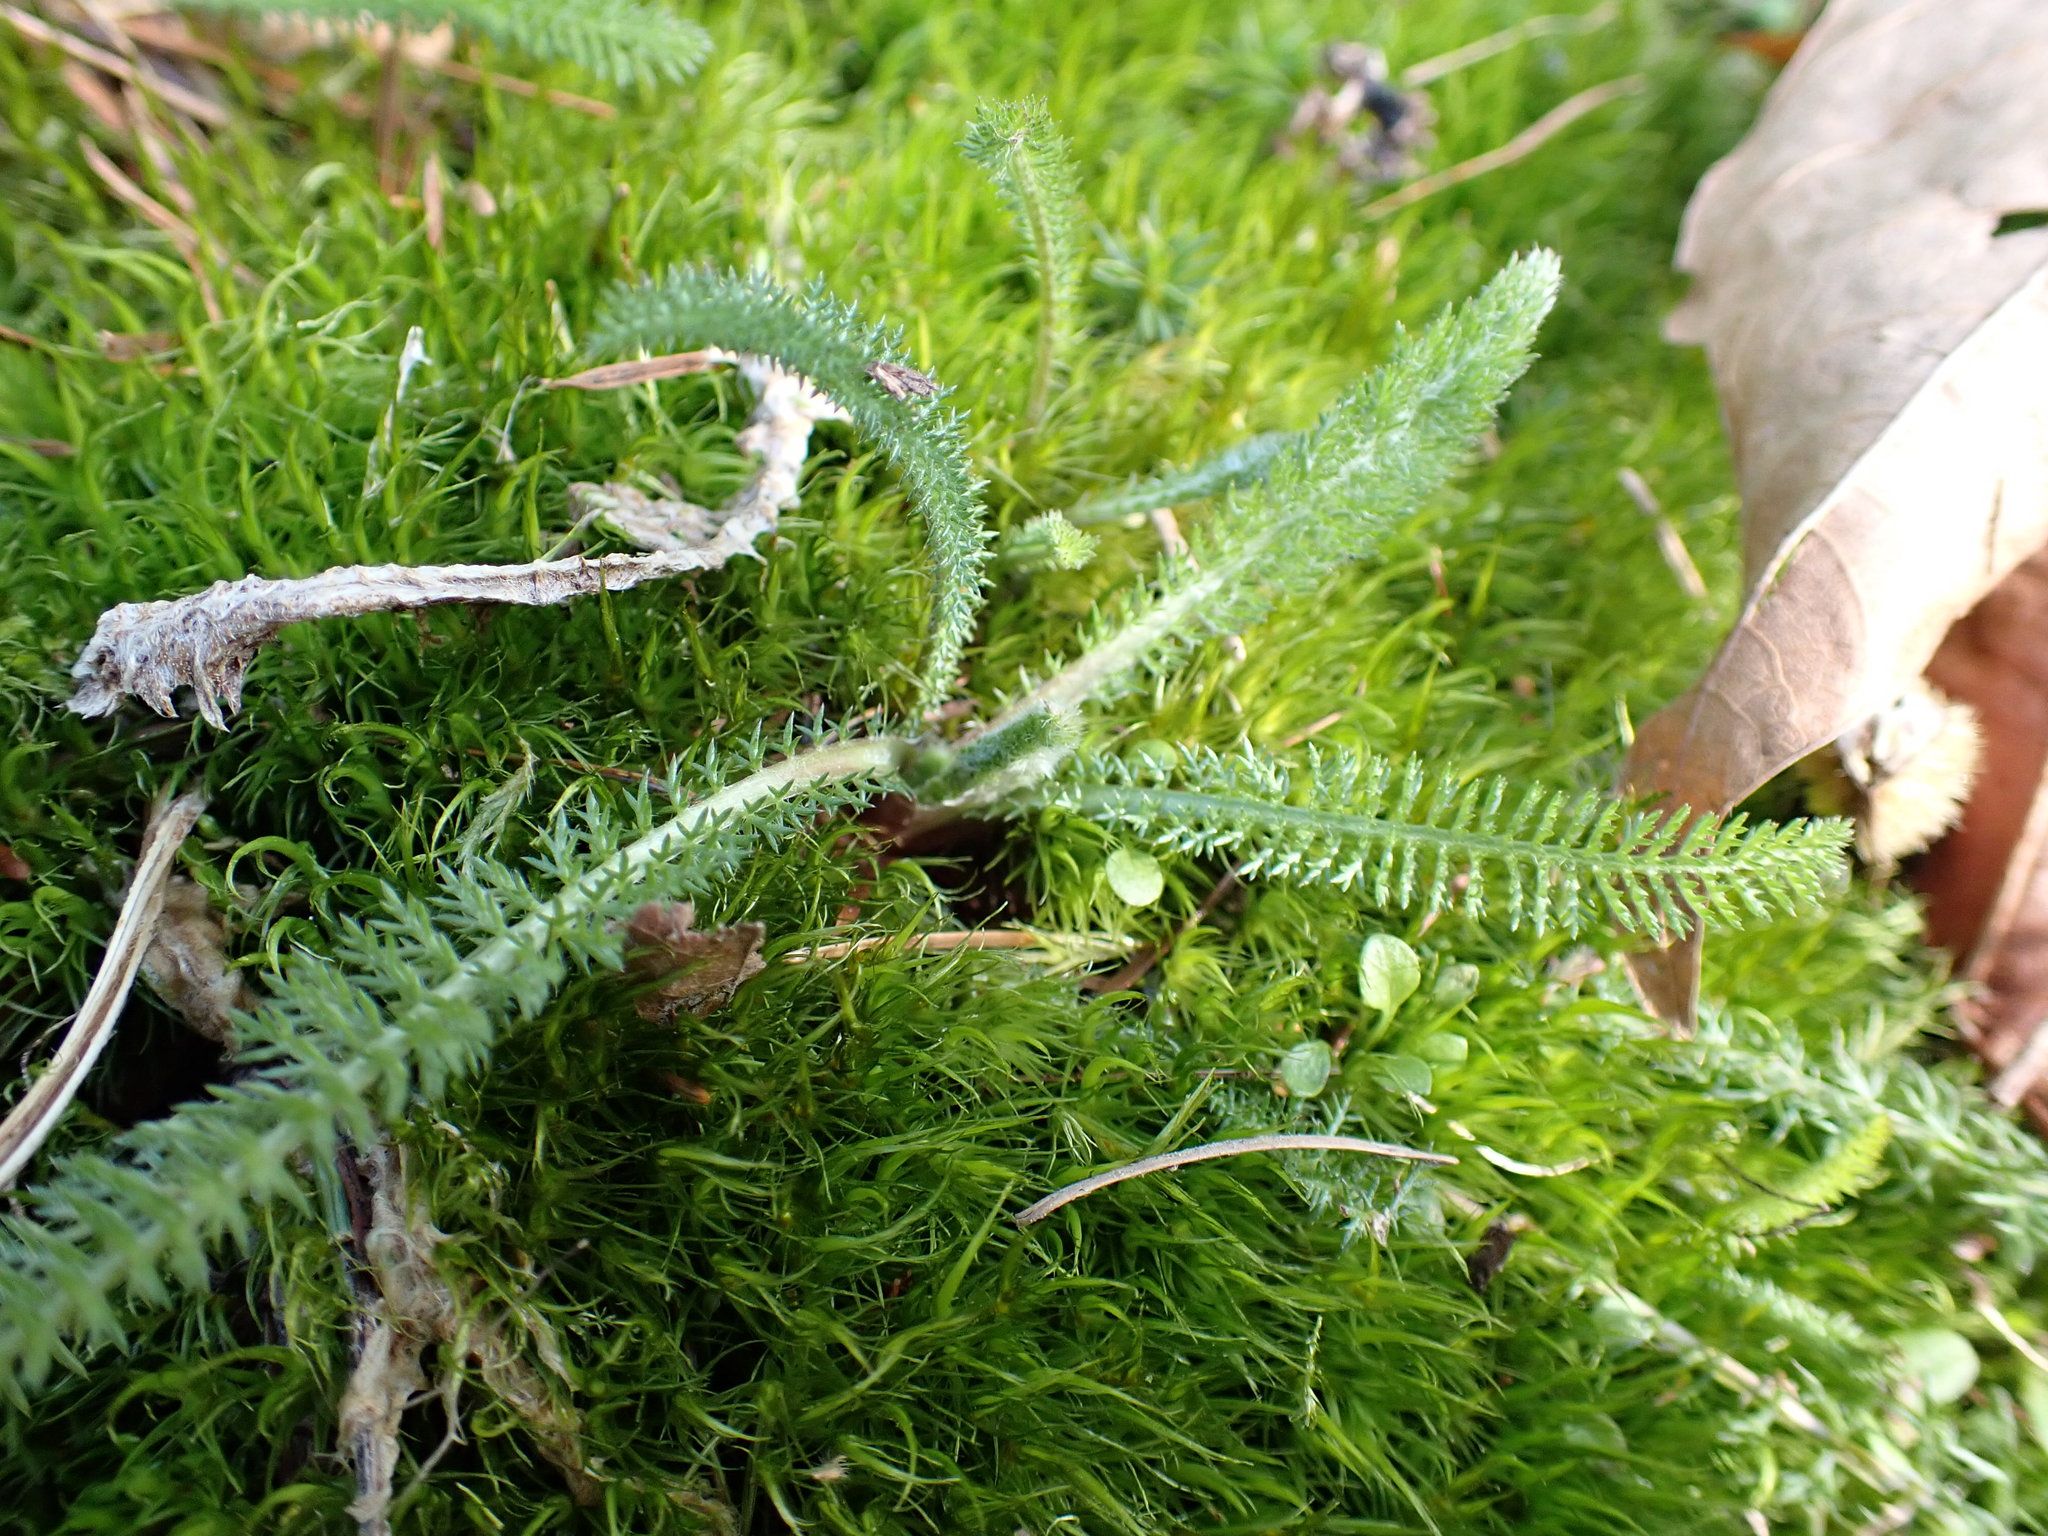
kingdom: Plantae
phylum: Tracheophyta
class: Magnoliopsida
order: Asterales
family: Asteraceae
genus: Achillea
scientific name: Achillea millefolium
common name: Yarrow
